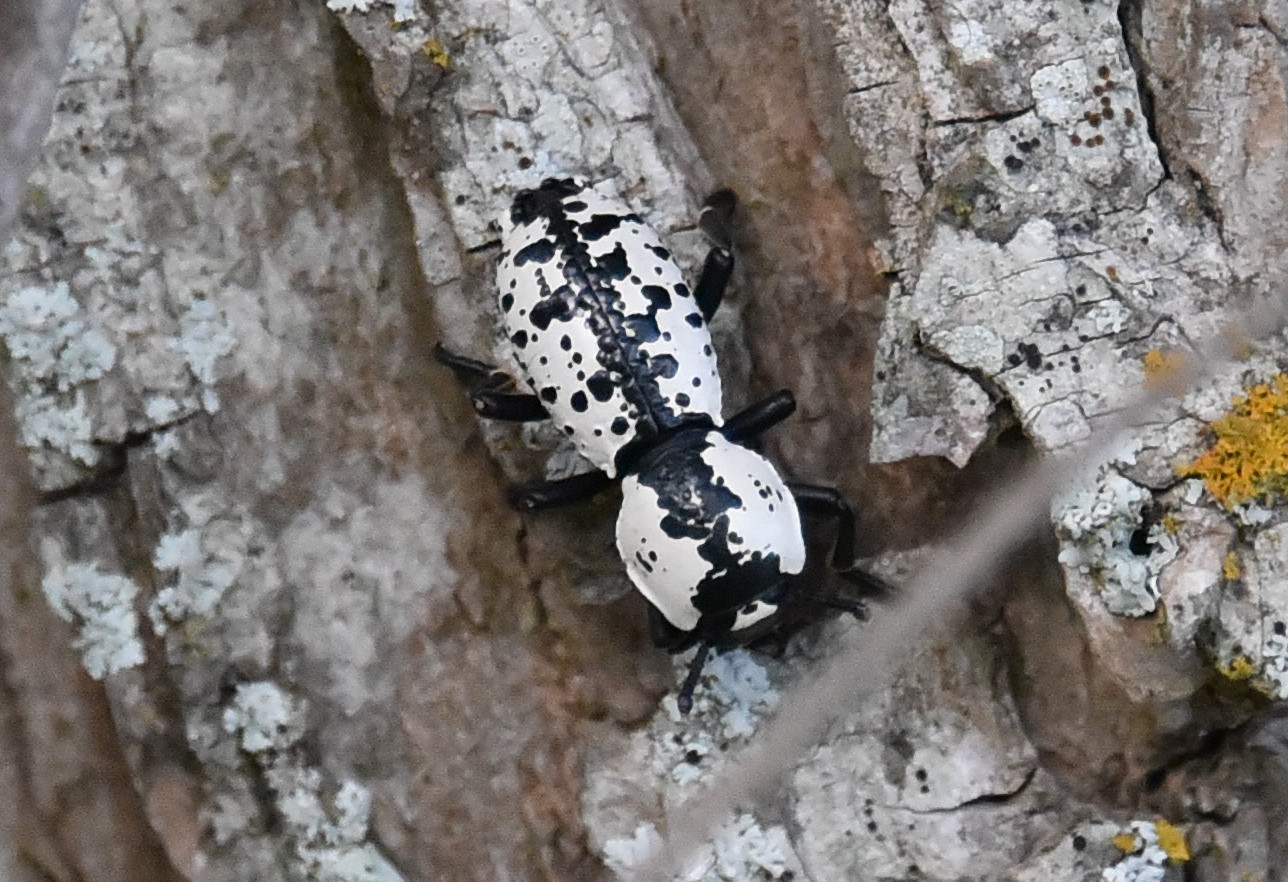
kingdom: Animalia
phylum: Arthropoda
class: Insecta
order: Coleoptera
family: Zopheridae
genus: Zopherus
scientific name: Zopherus nodulosus
